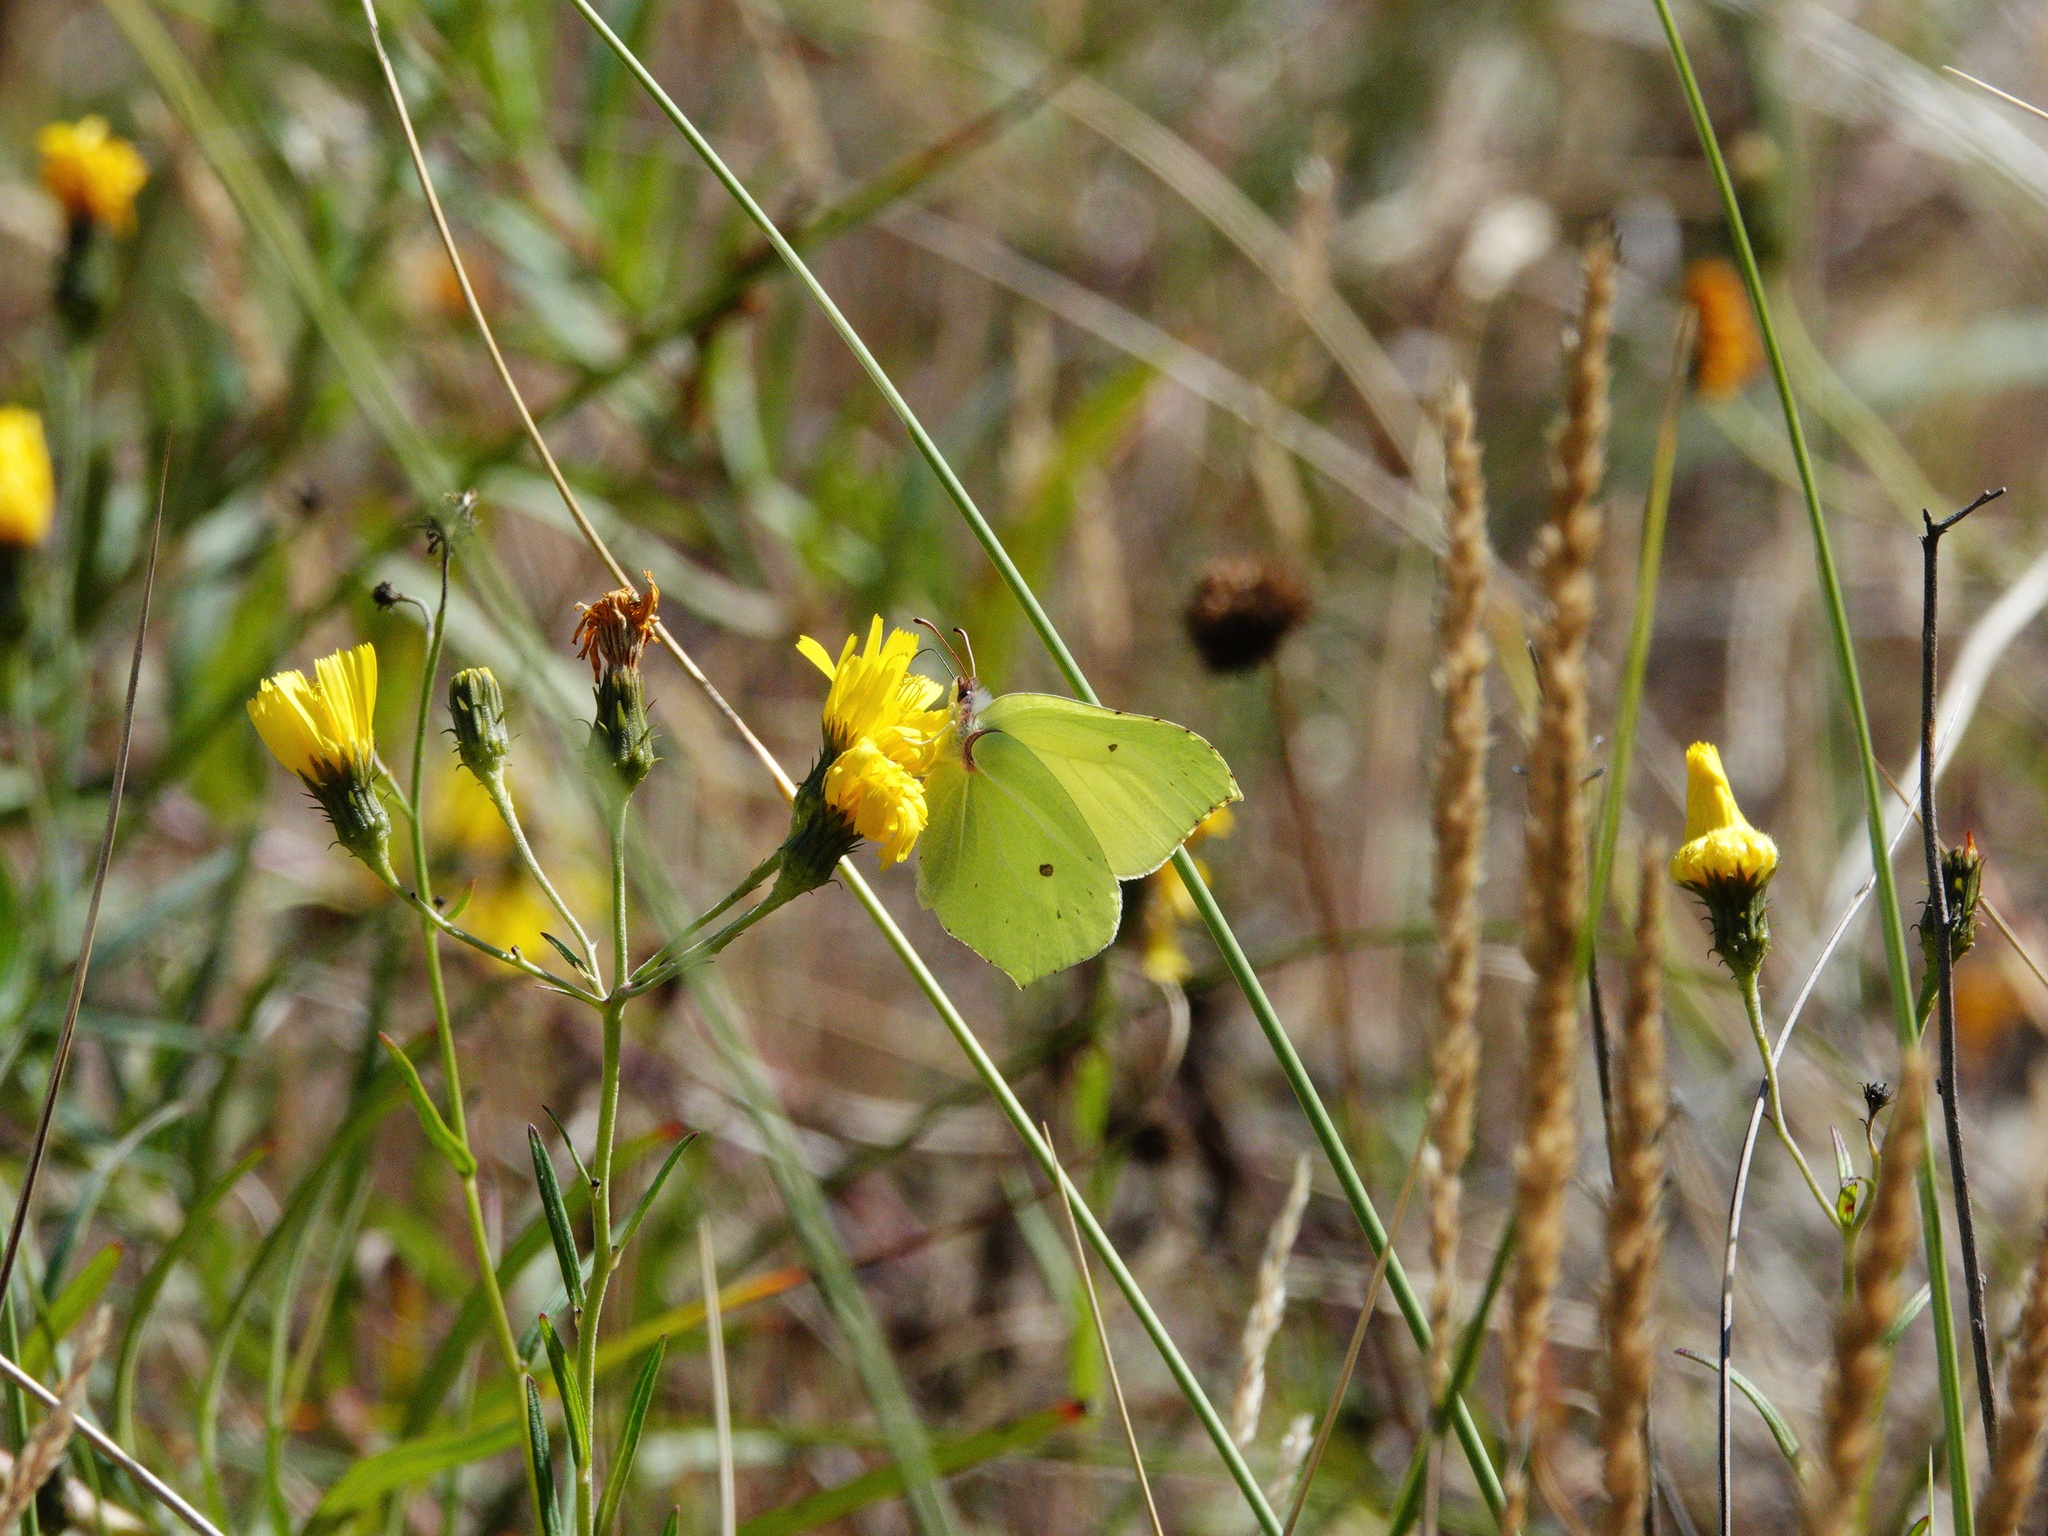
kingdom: Animalia
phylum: Arthropoda
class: Insecta
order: Lepidoptera
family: Pieridae
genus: Gonepteryx
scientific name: Gonepteryx rhamni
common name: Brimstone
